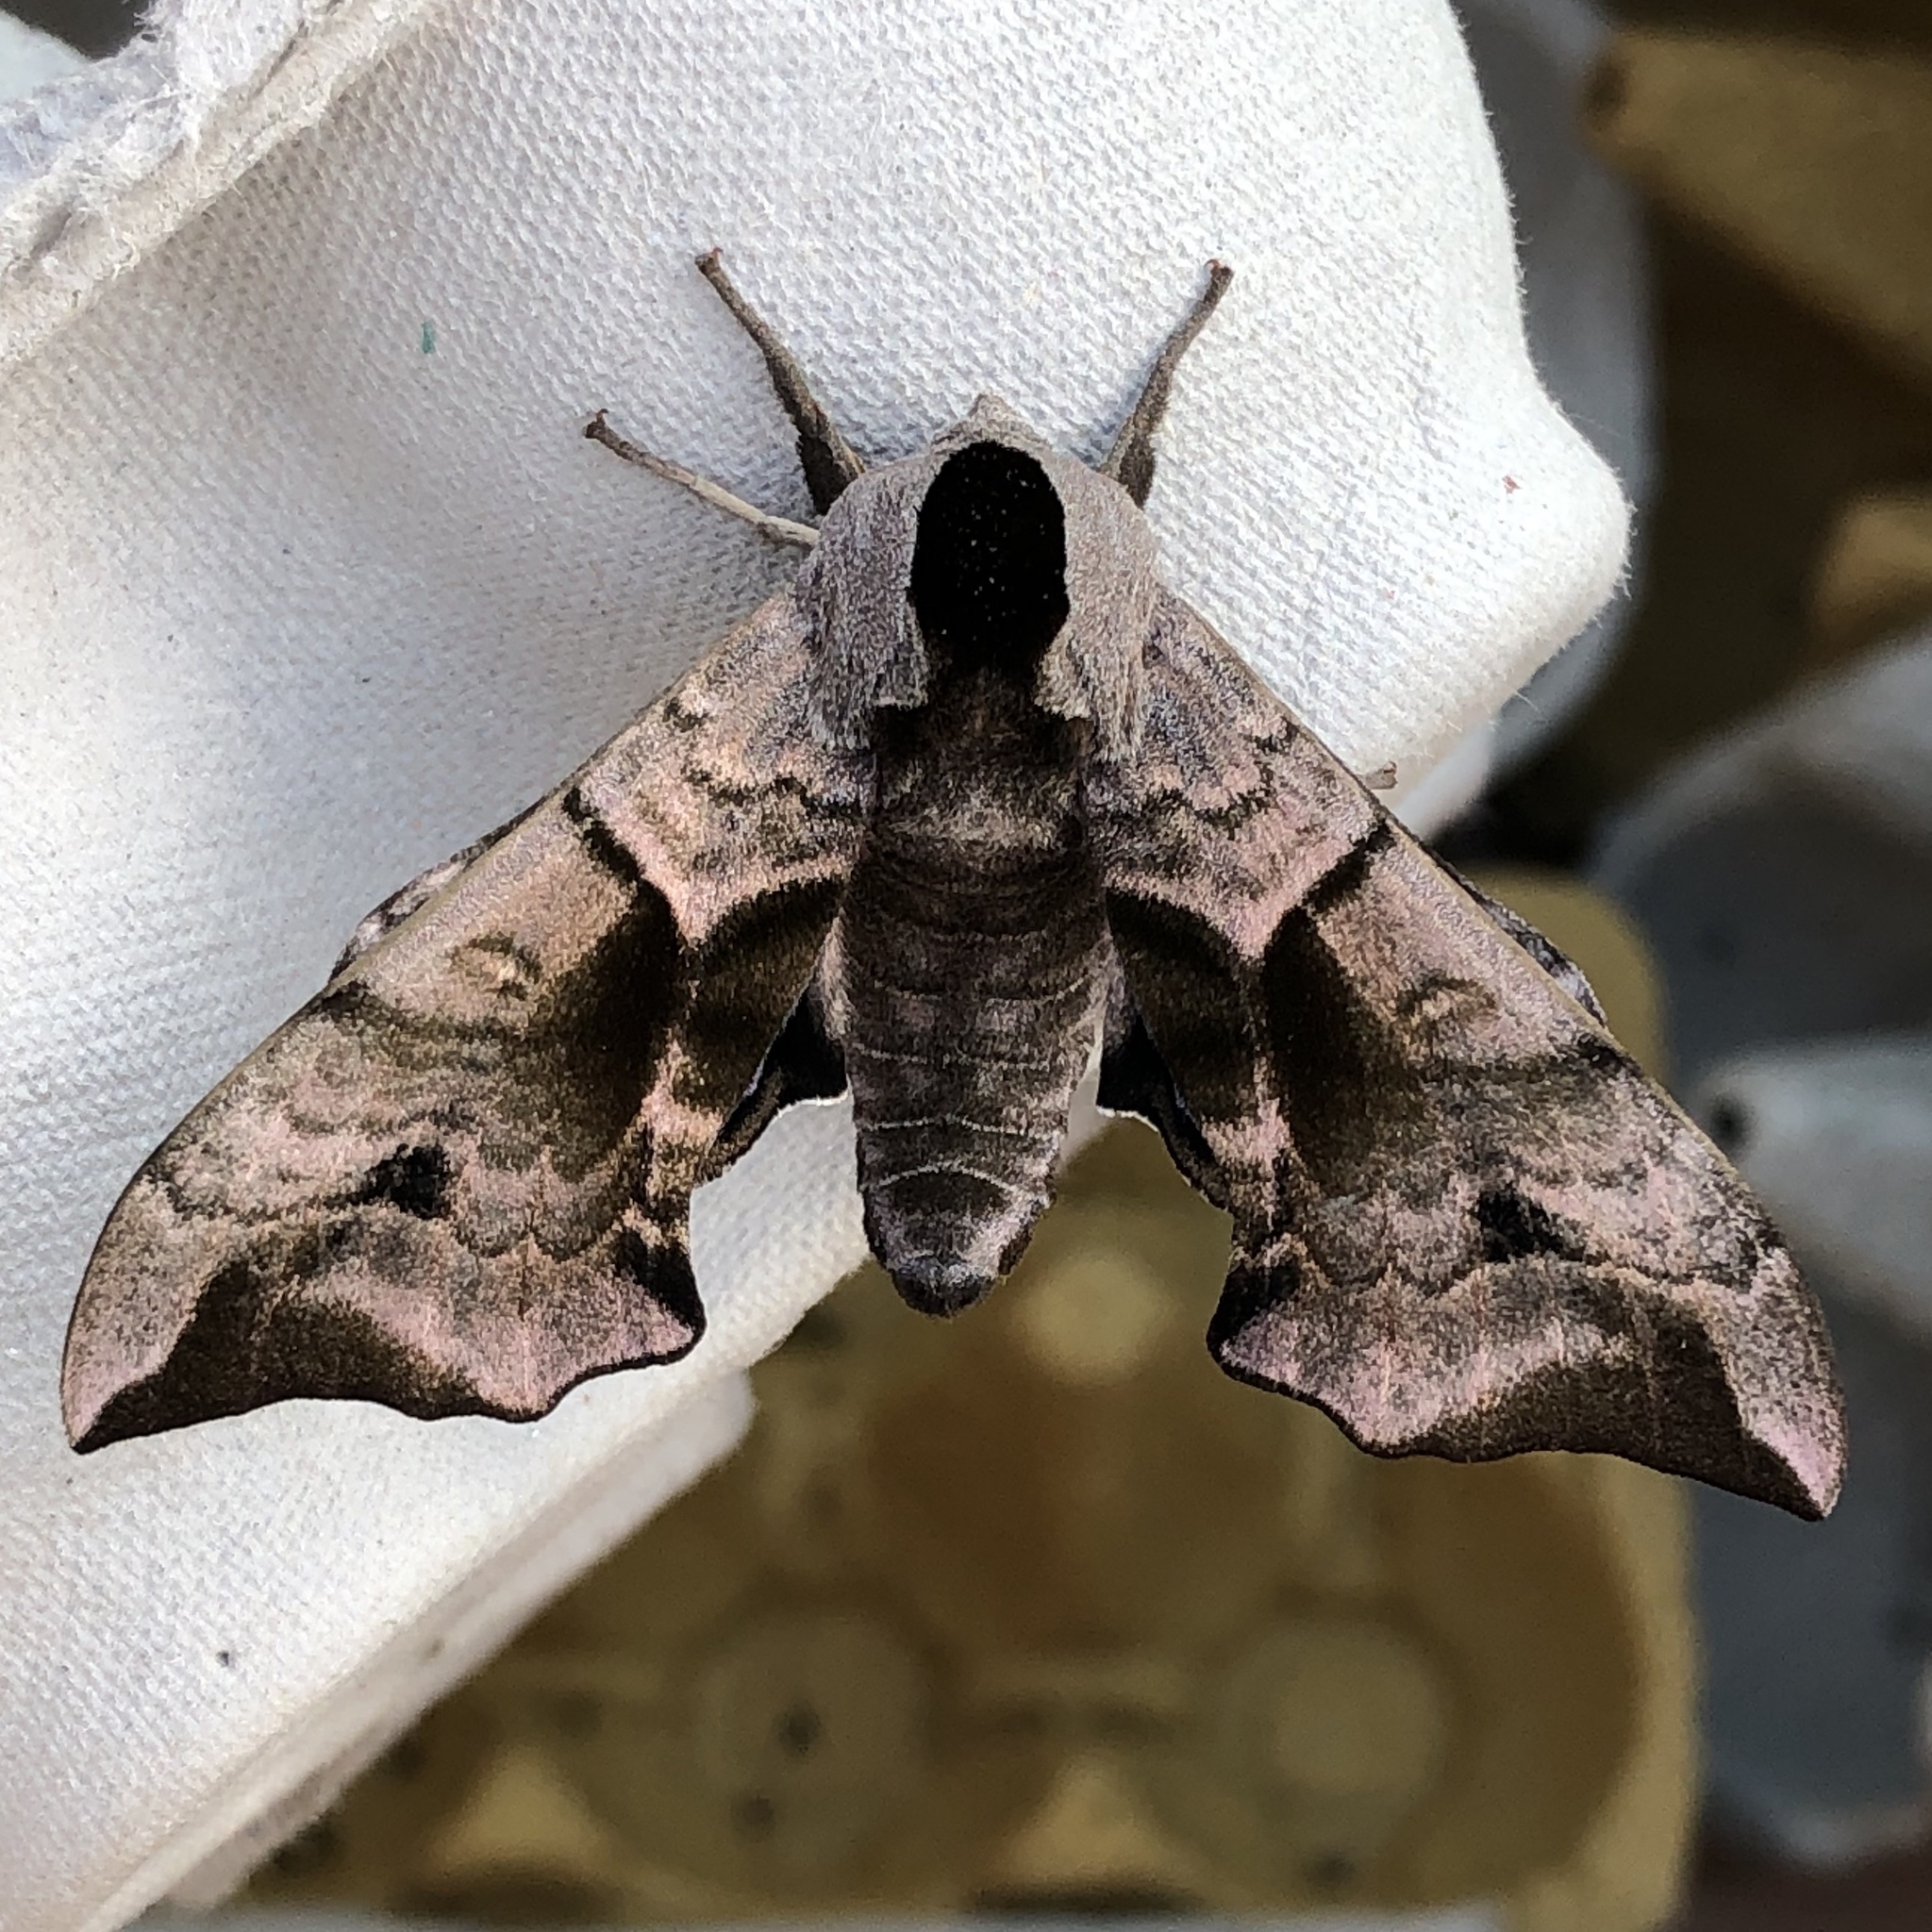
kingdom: Animalia
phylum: Arthropoda
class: Insecta
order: Lepidoptera
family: Sphingidae
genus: Smerinthus
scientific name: Smerinthus ocellata
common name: Eyed hawk-moth
